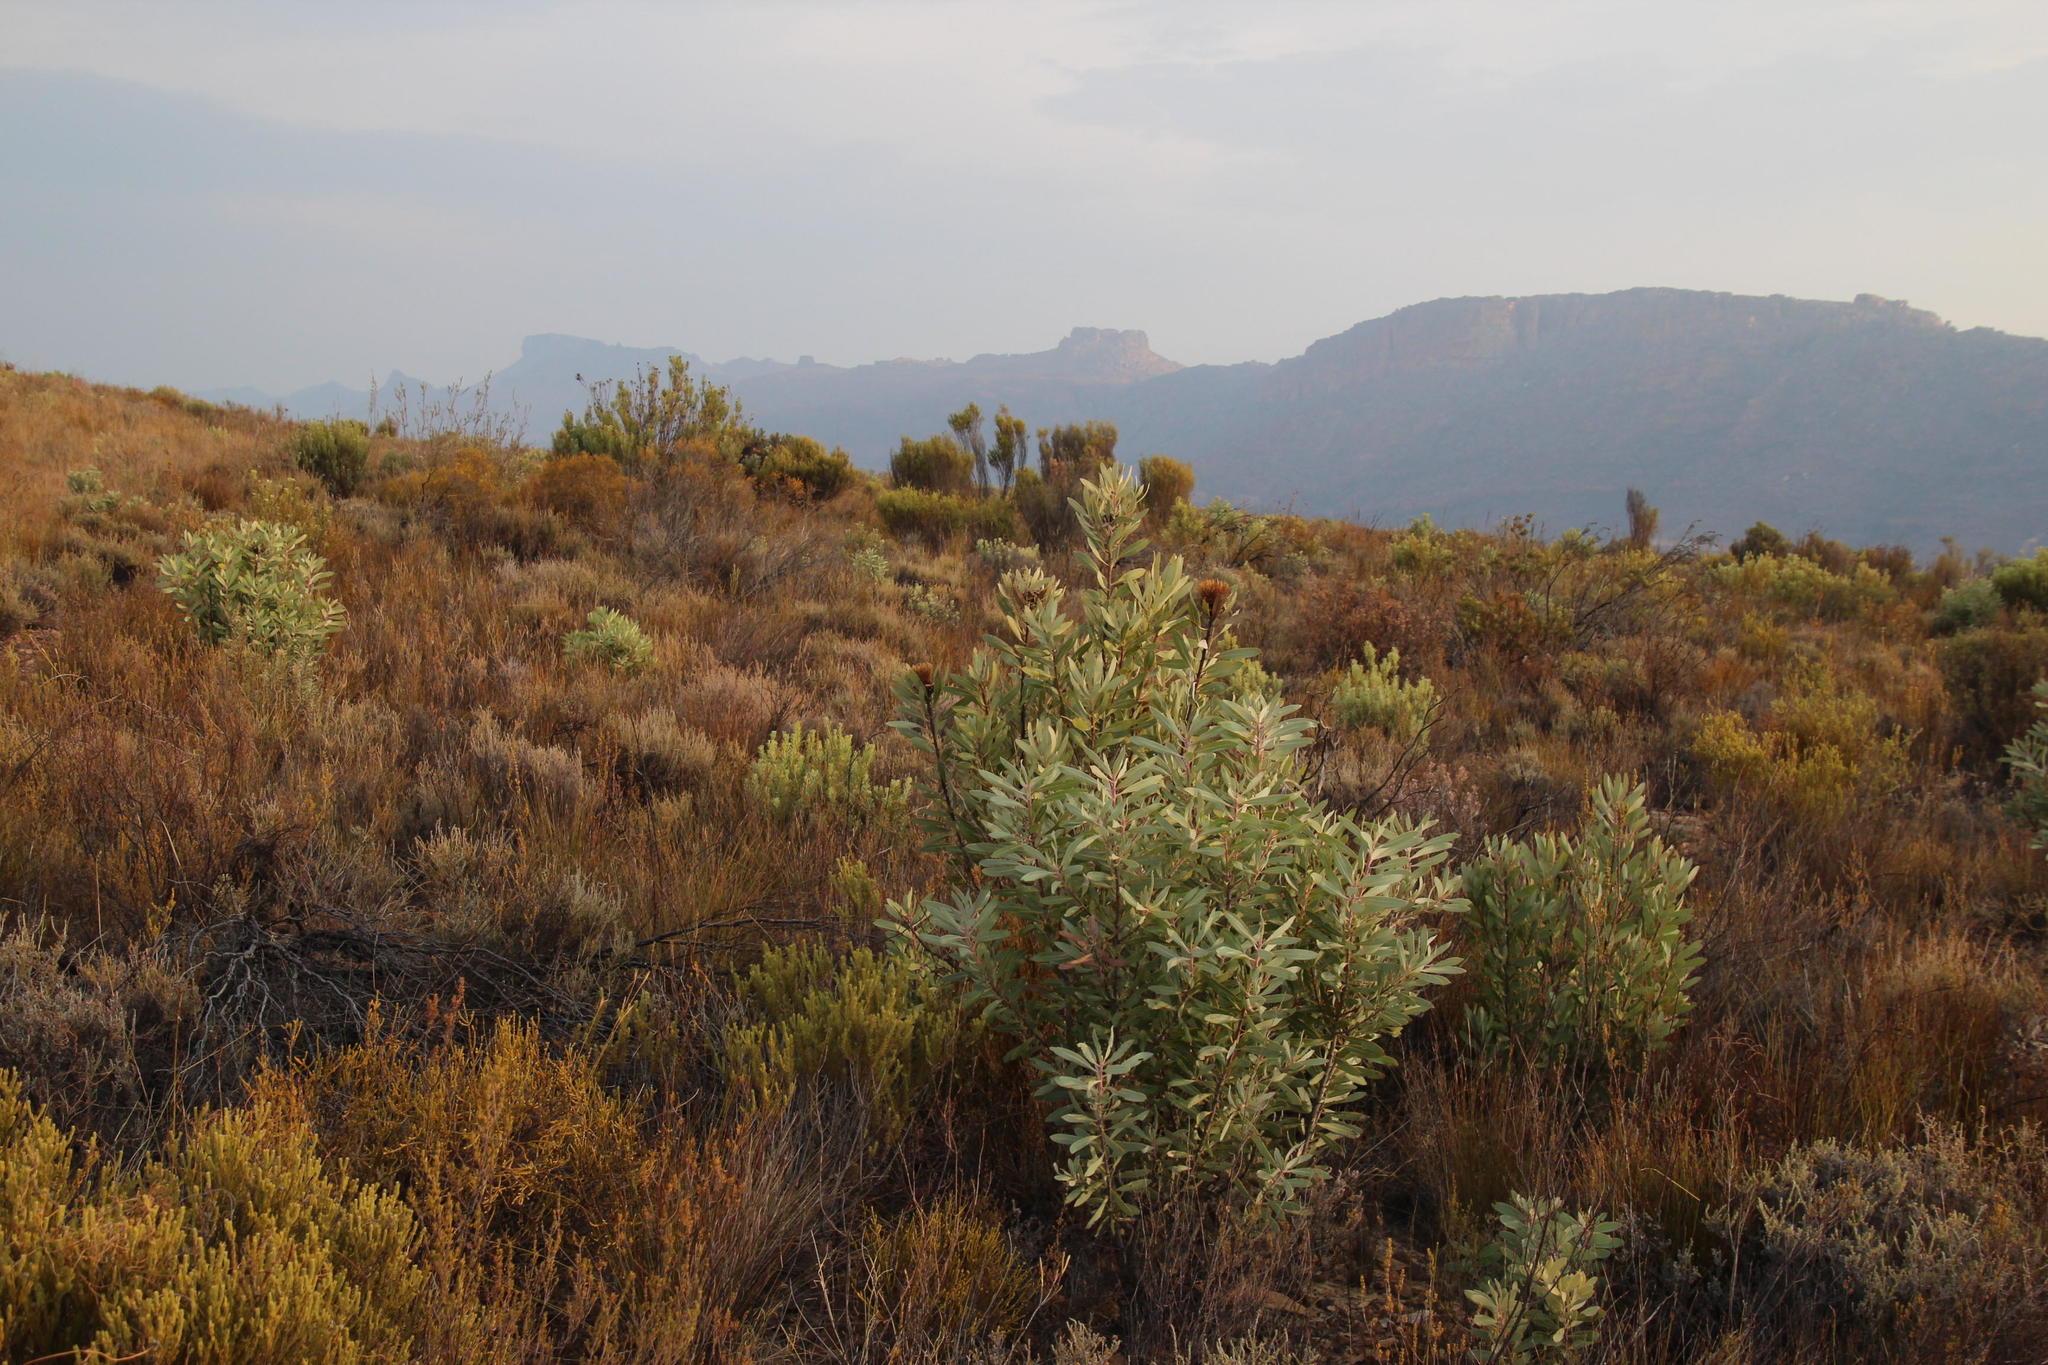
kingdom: Plantae
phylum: Tracheophyta
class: Magnoliopsida
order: Proteales
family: Proteaceae
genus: Protea
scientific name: Protea laurifolia
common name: Grey-leaf sugarbsh
